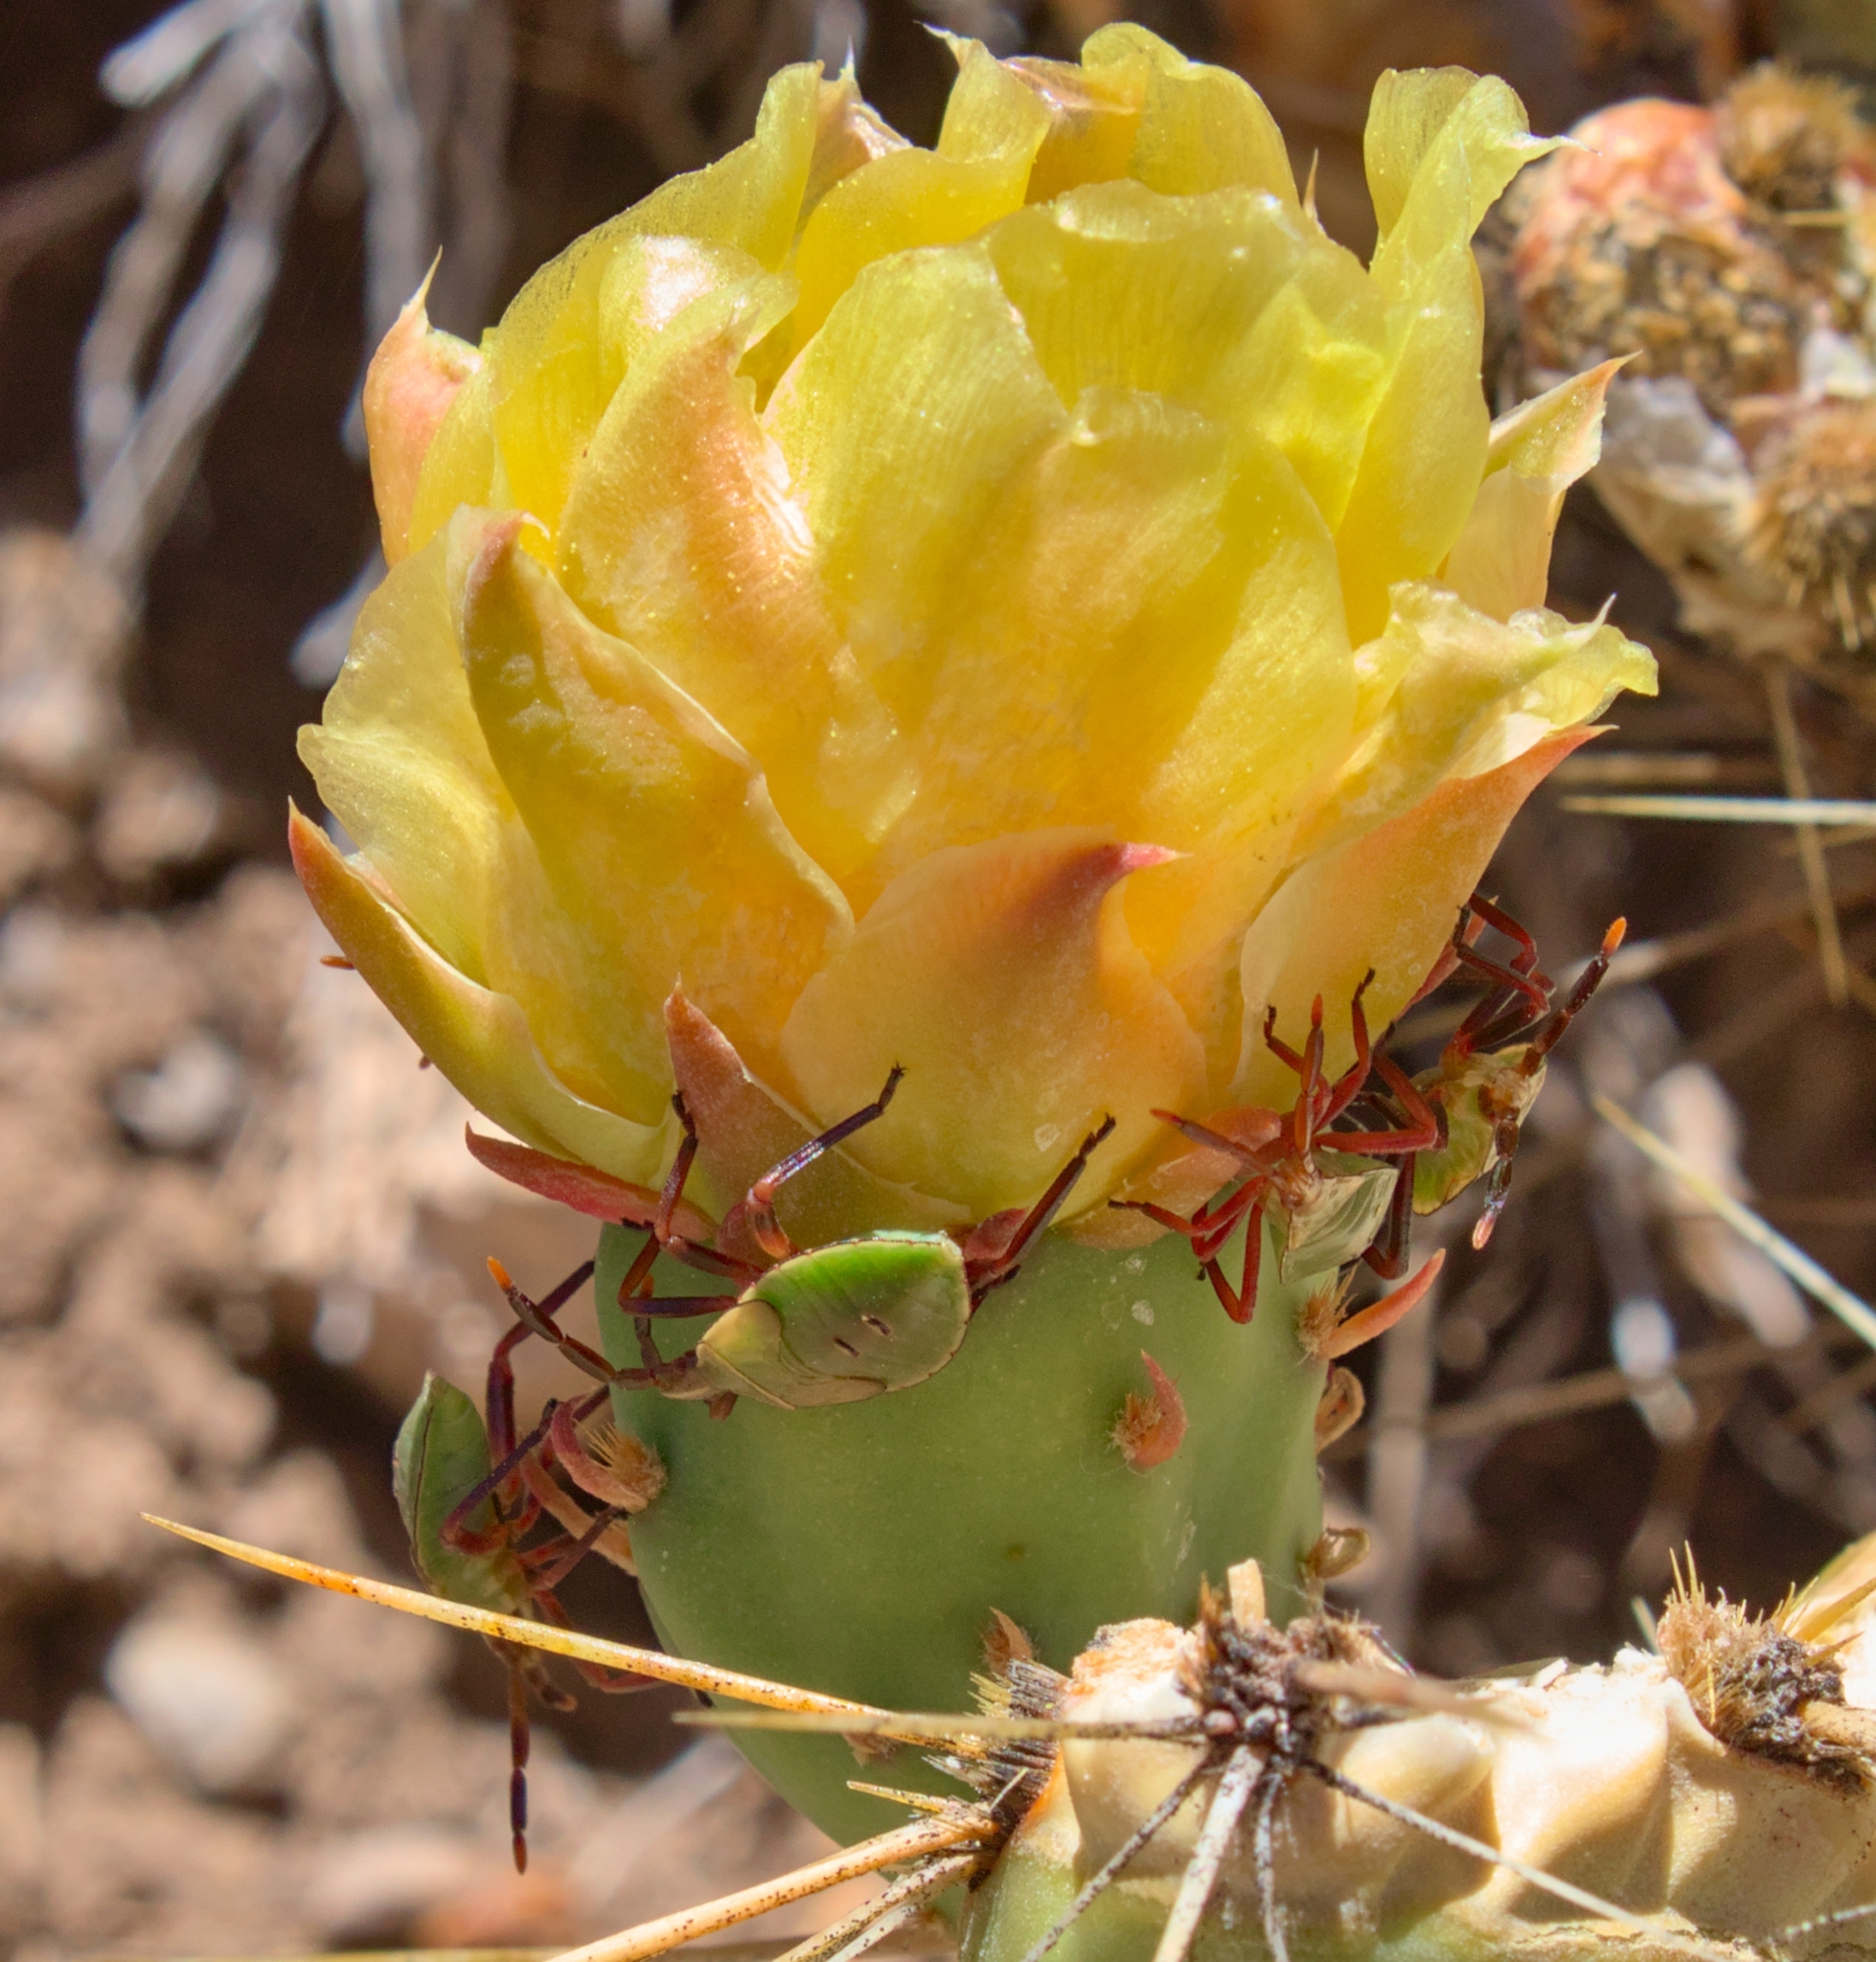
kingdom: Animalia
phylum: Arthropoda
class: Insecta
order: Hemiptera
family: Coreidae
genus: Chelinidea
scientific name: Chelinidea vittiger
